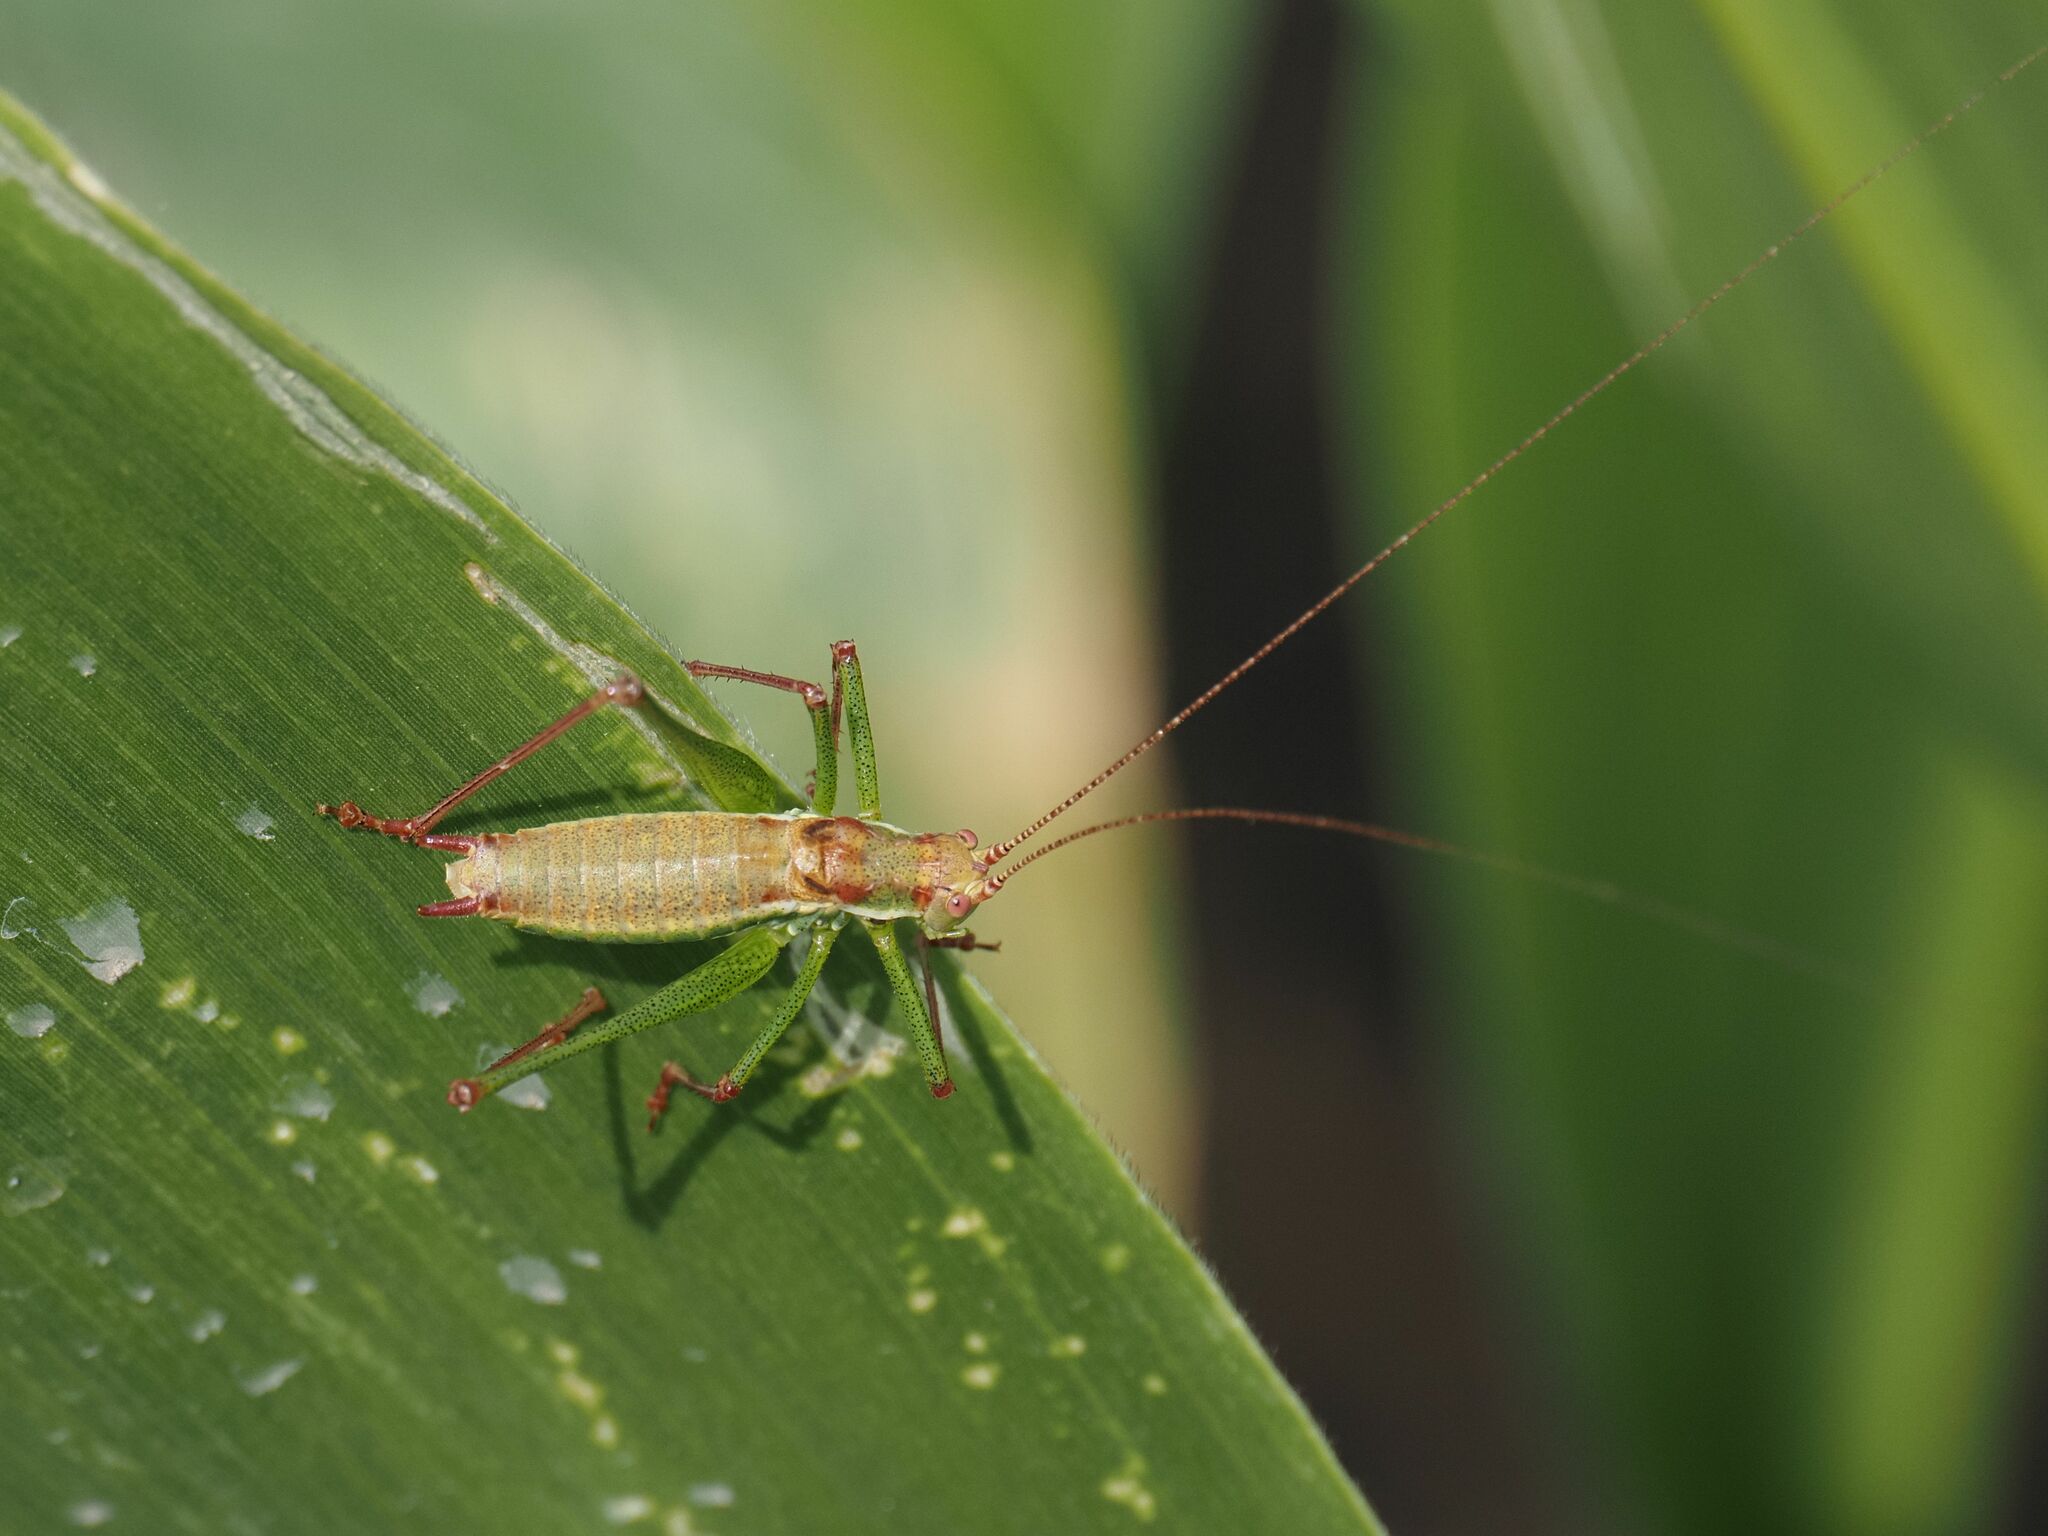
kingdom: Animalia
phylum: Arthropoda
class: Insecta
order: Orthoptera
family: Tettigoniidae
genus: Leptophyes
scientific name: Leptophyes albovittata
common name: Striped bush-cricket
